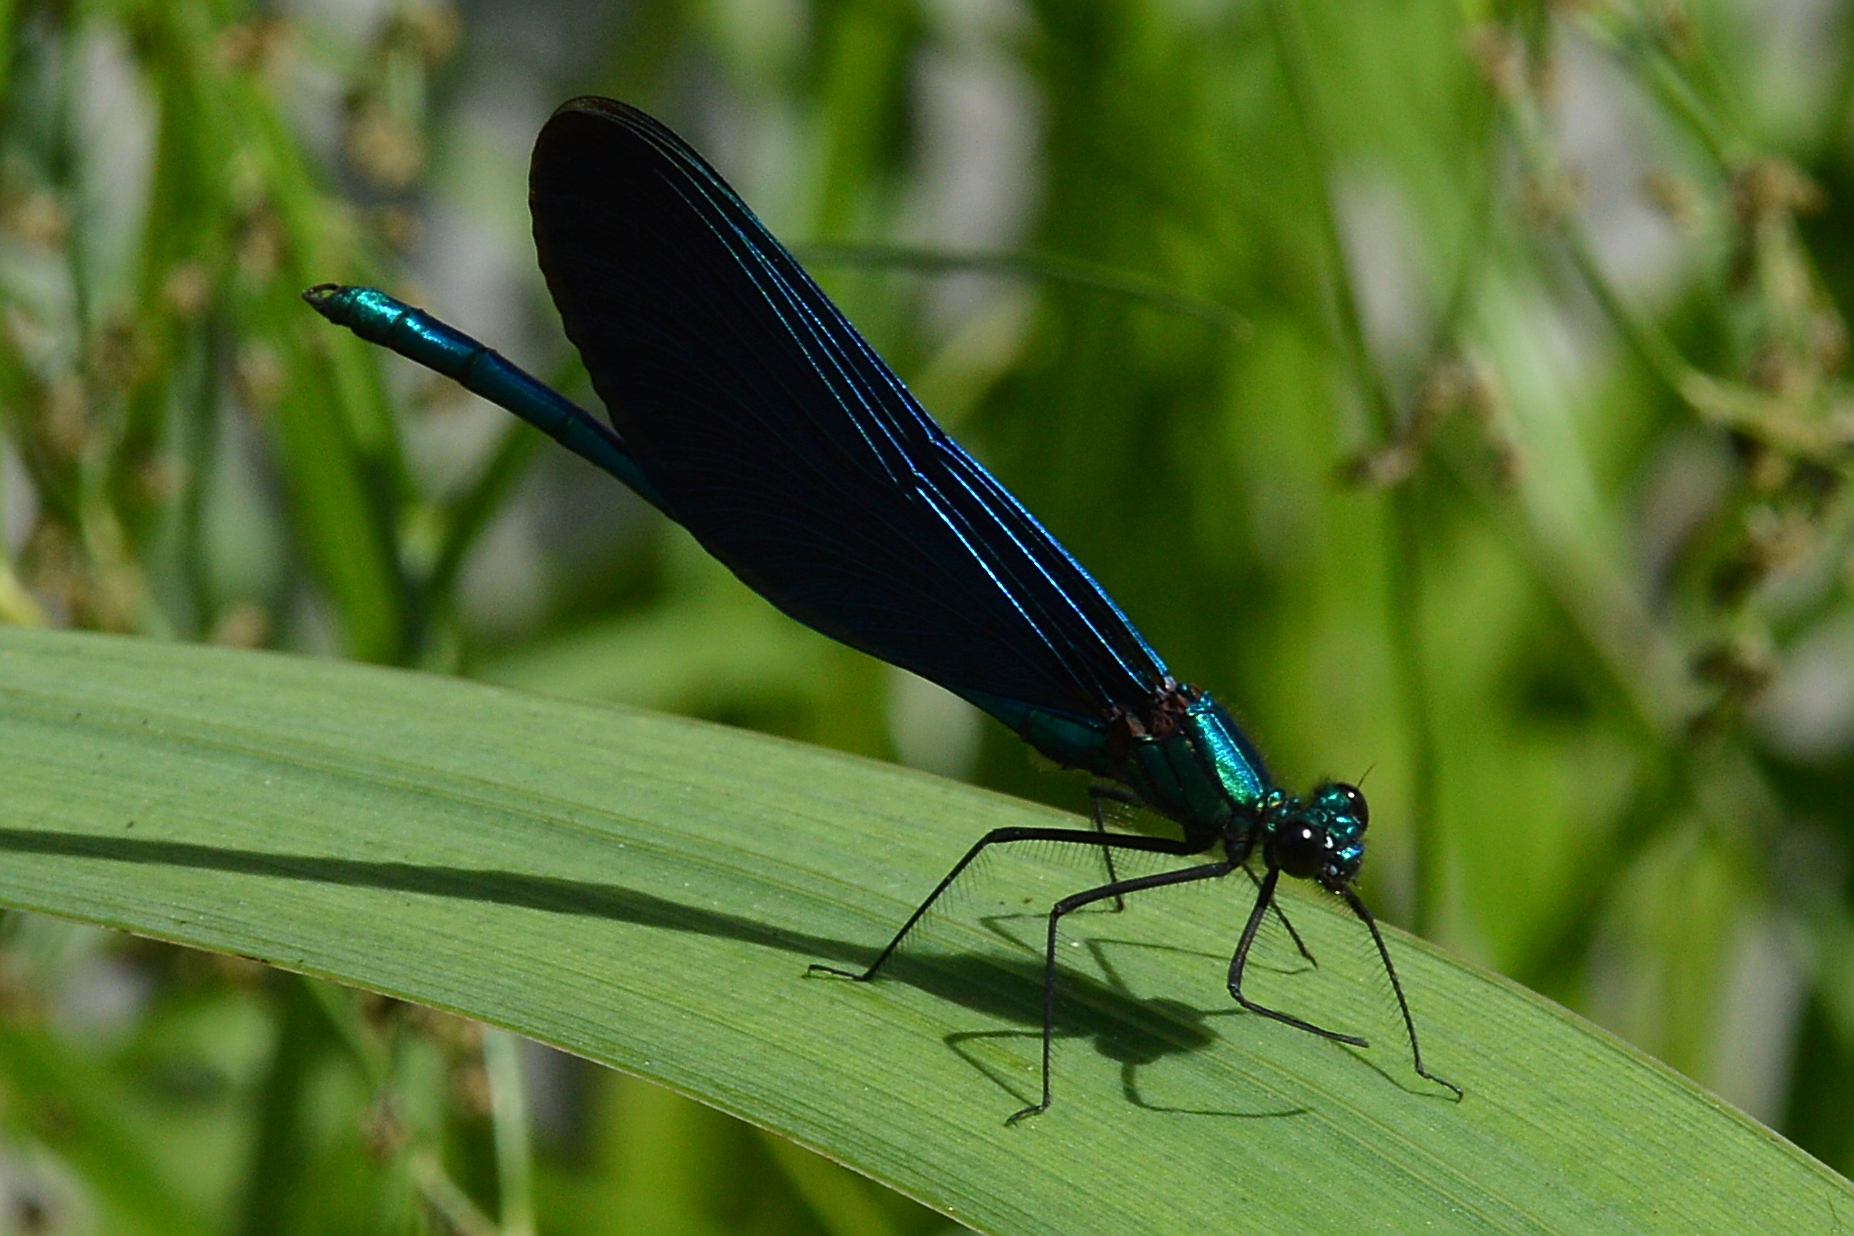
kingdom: Animalia
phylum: Arthropoda
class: Insecta
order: Odonata
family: Calopterygidae
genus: Calopteryx
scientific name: Calopteryx virgo
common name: Beautiful demoiselle
